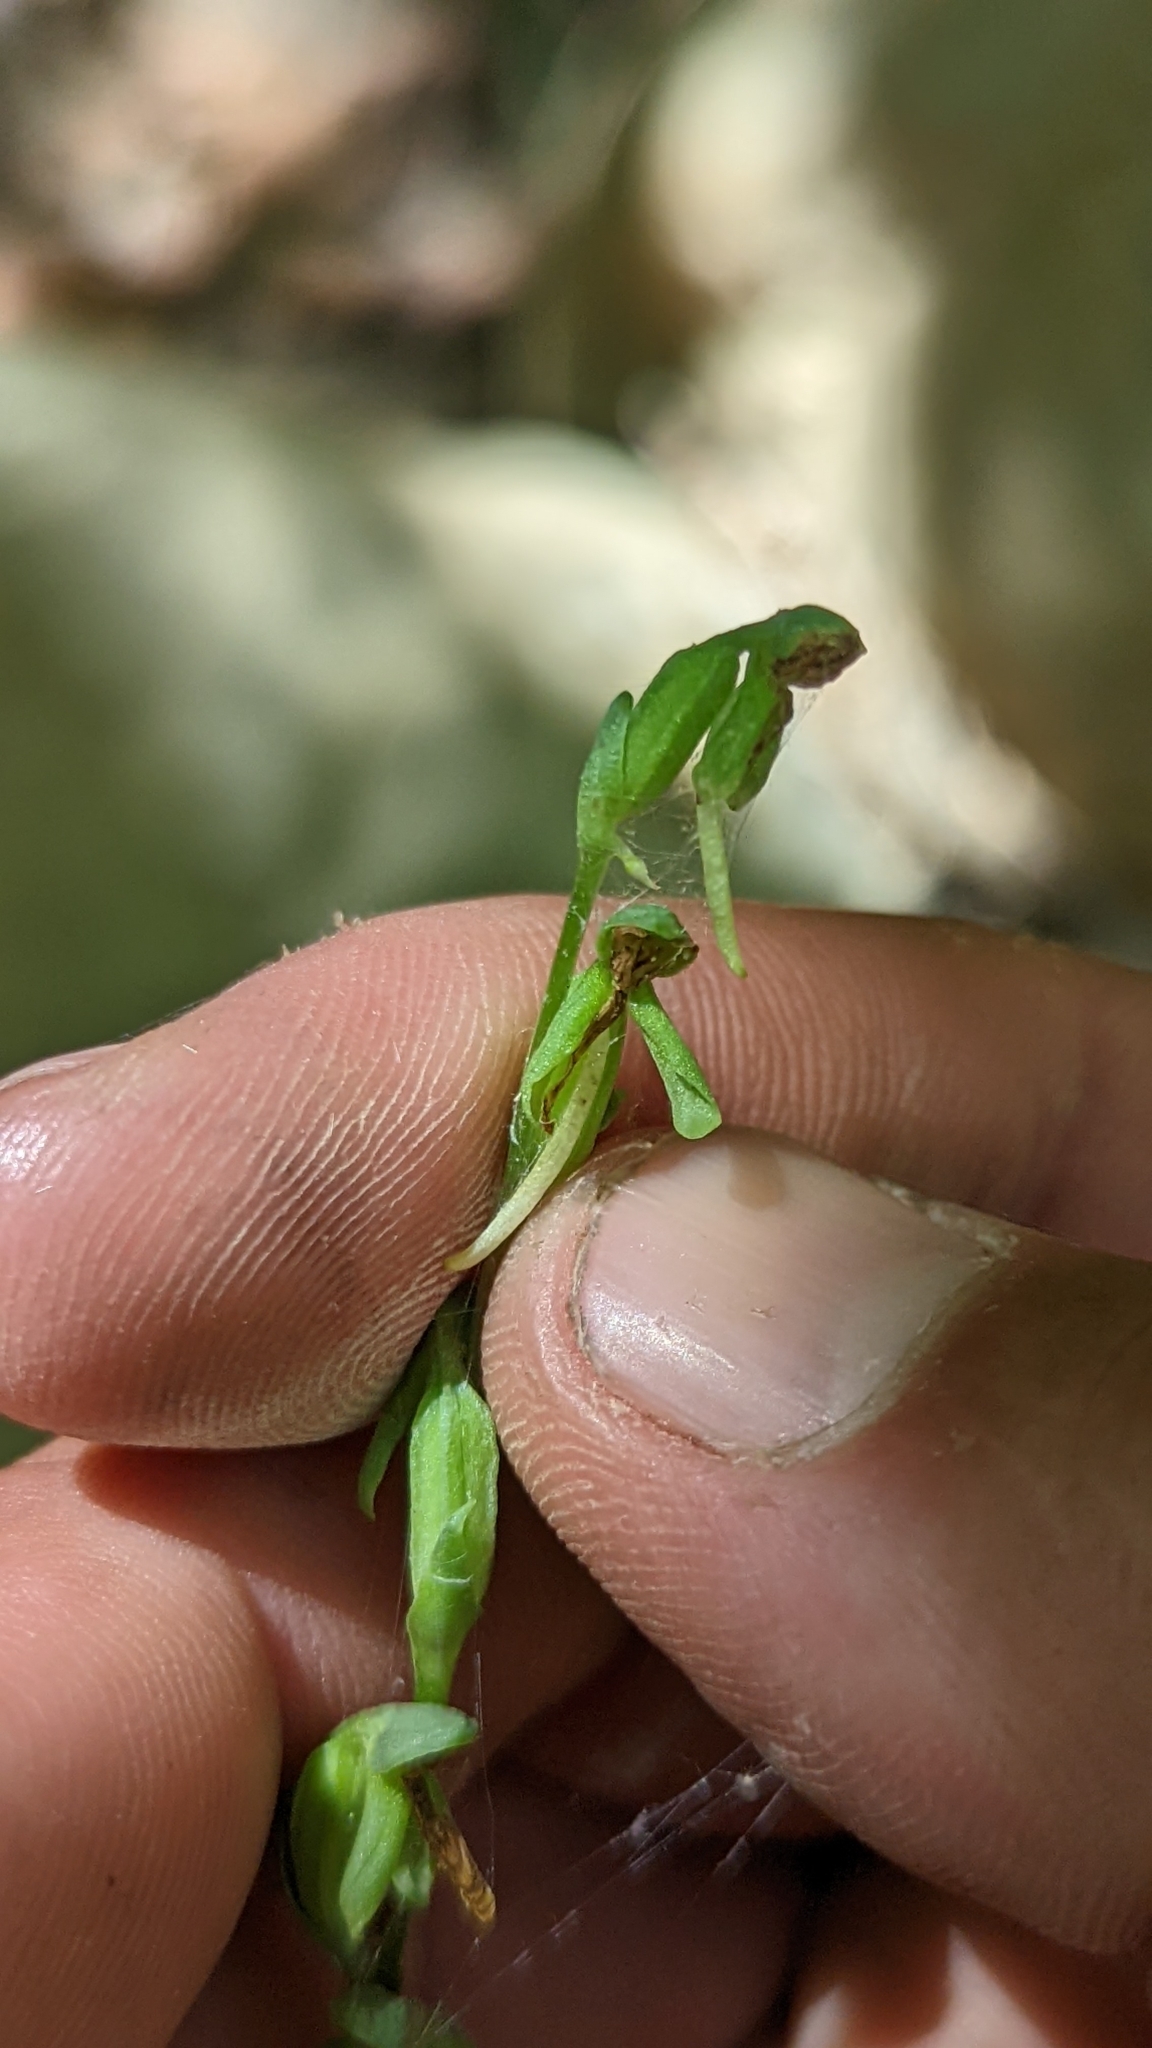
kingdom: Plantae
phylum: Tracheophyta
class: Liliopsida
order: Asparagales
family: Orchidaceae
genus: Platanthera
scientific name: Platanthera sparsiflora
